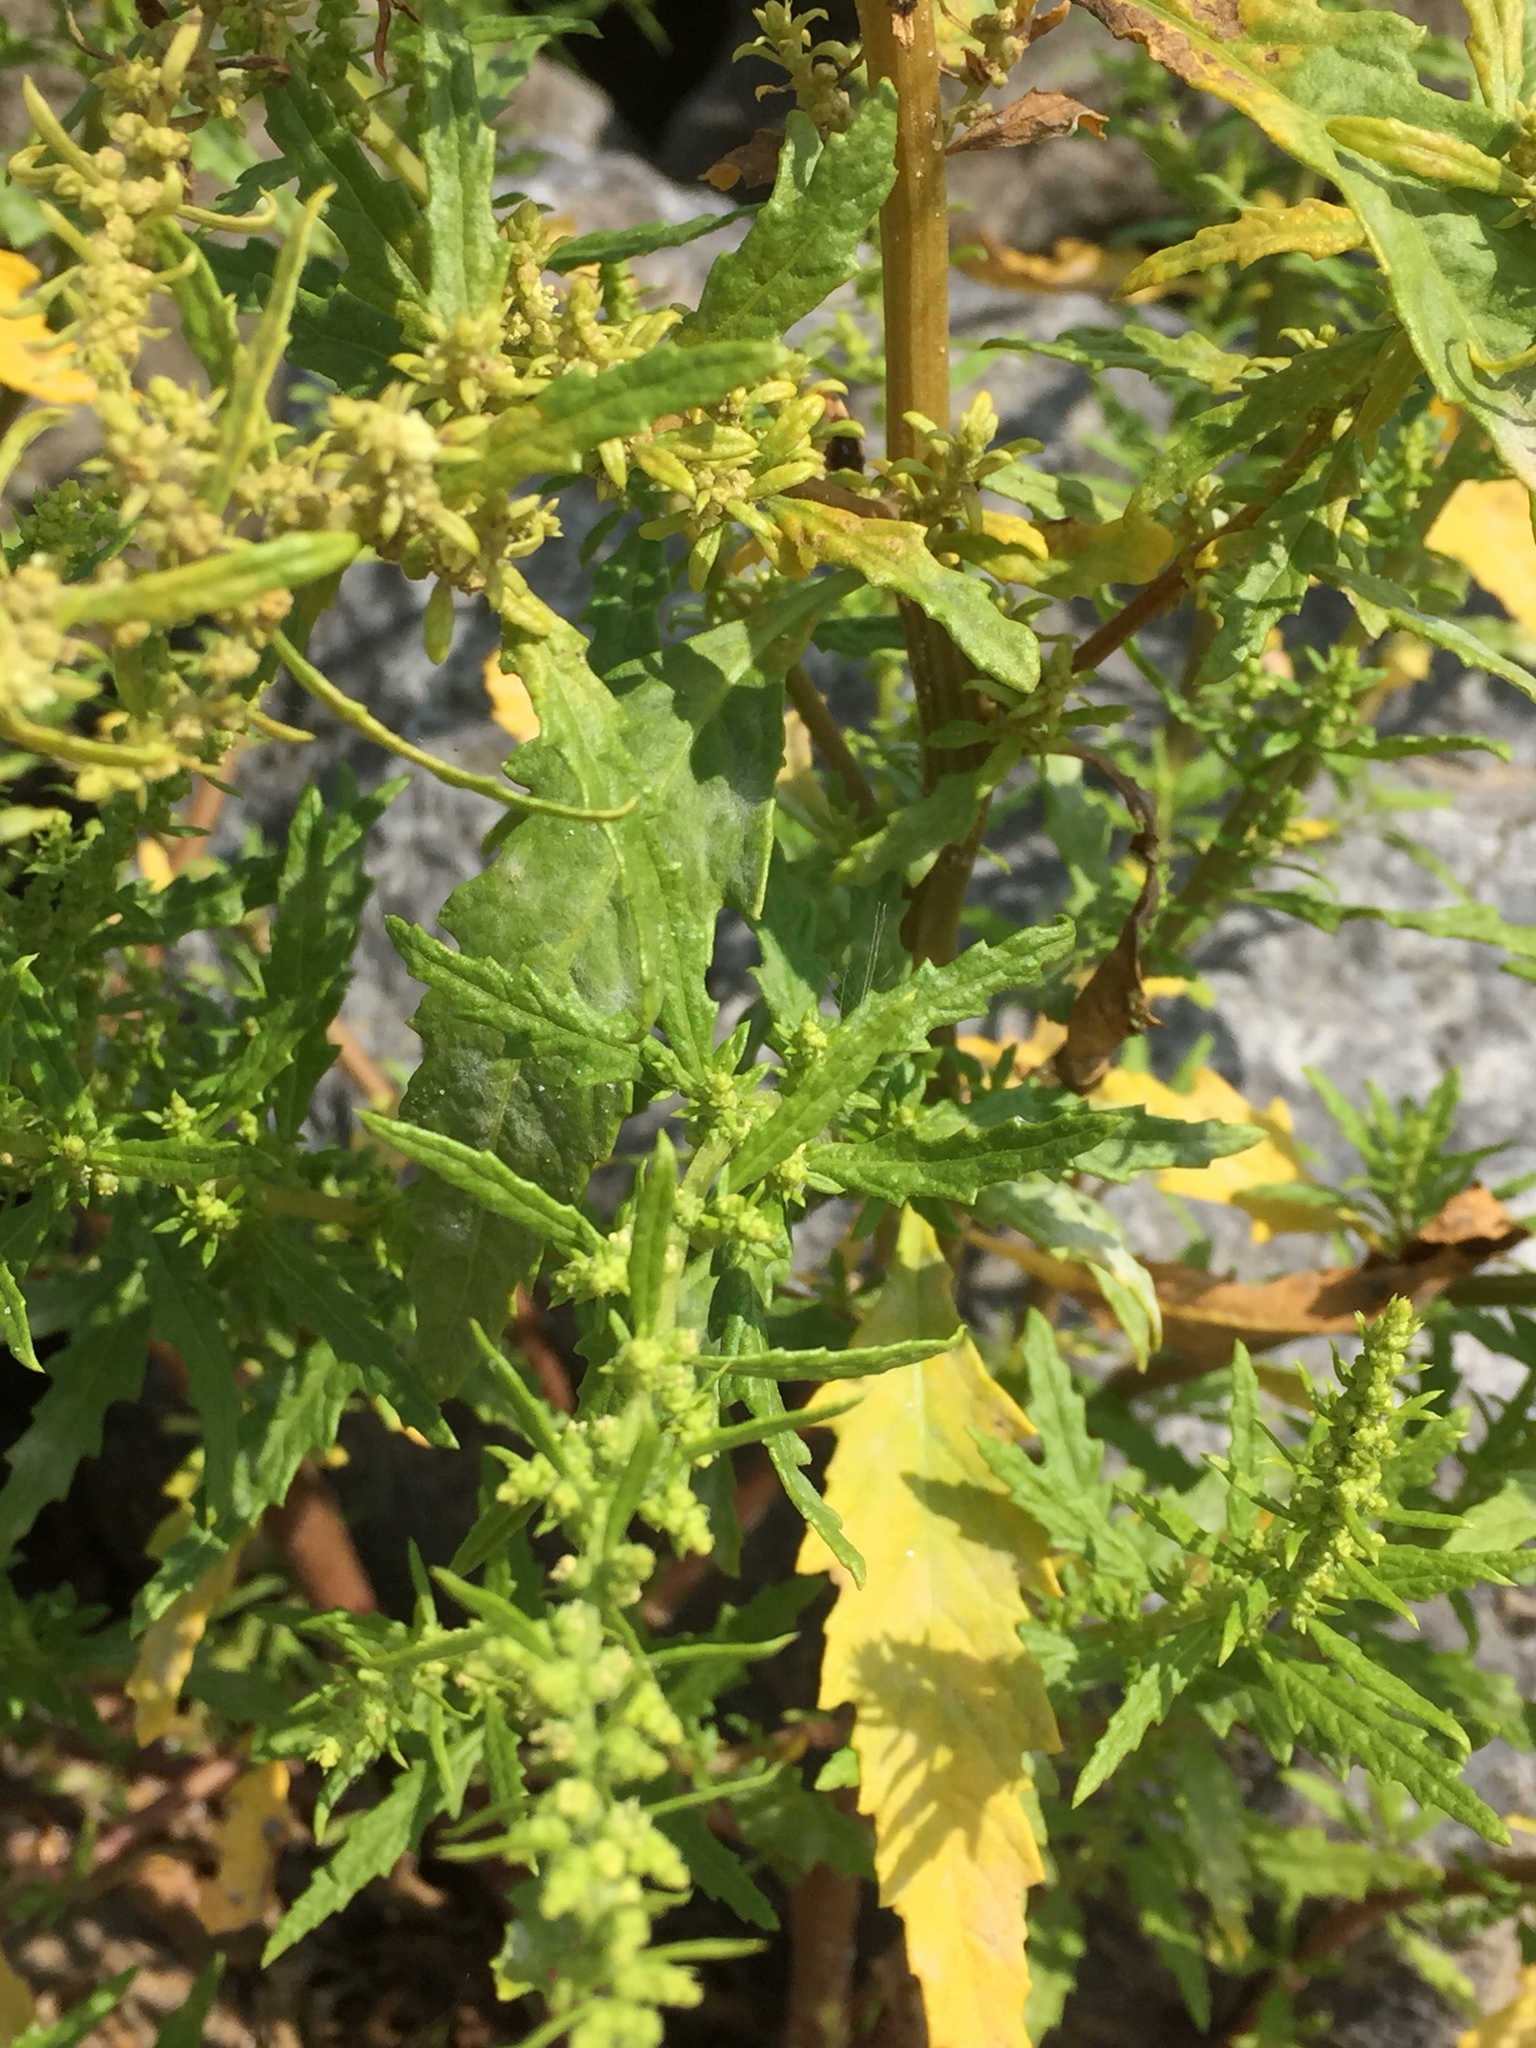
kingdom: Plantae
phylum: Tracheophyta
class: Magnoliopsida
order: Caryophyllales
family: Amaranthaceae
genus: Dysphania
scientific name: Dysphania ambrosioides
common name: Wormseed
